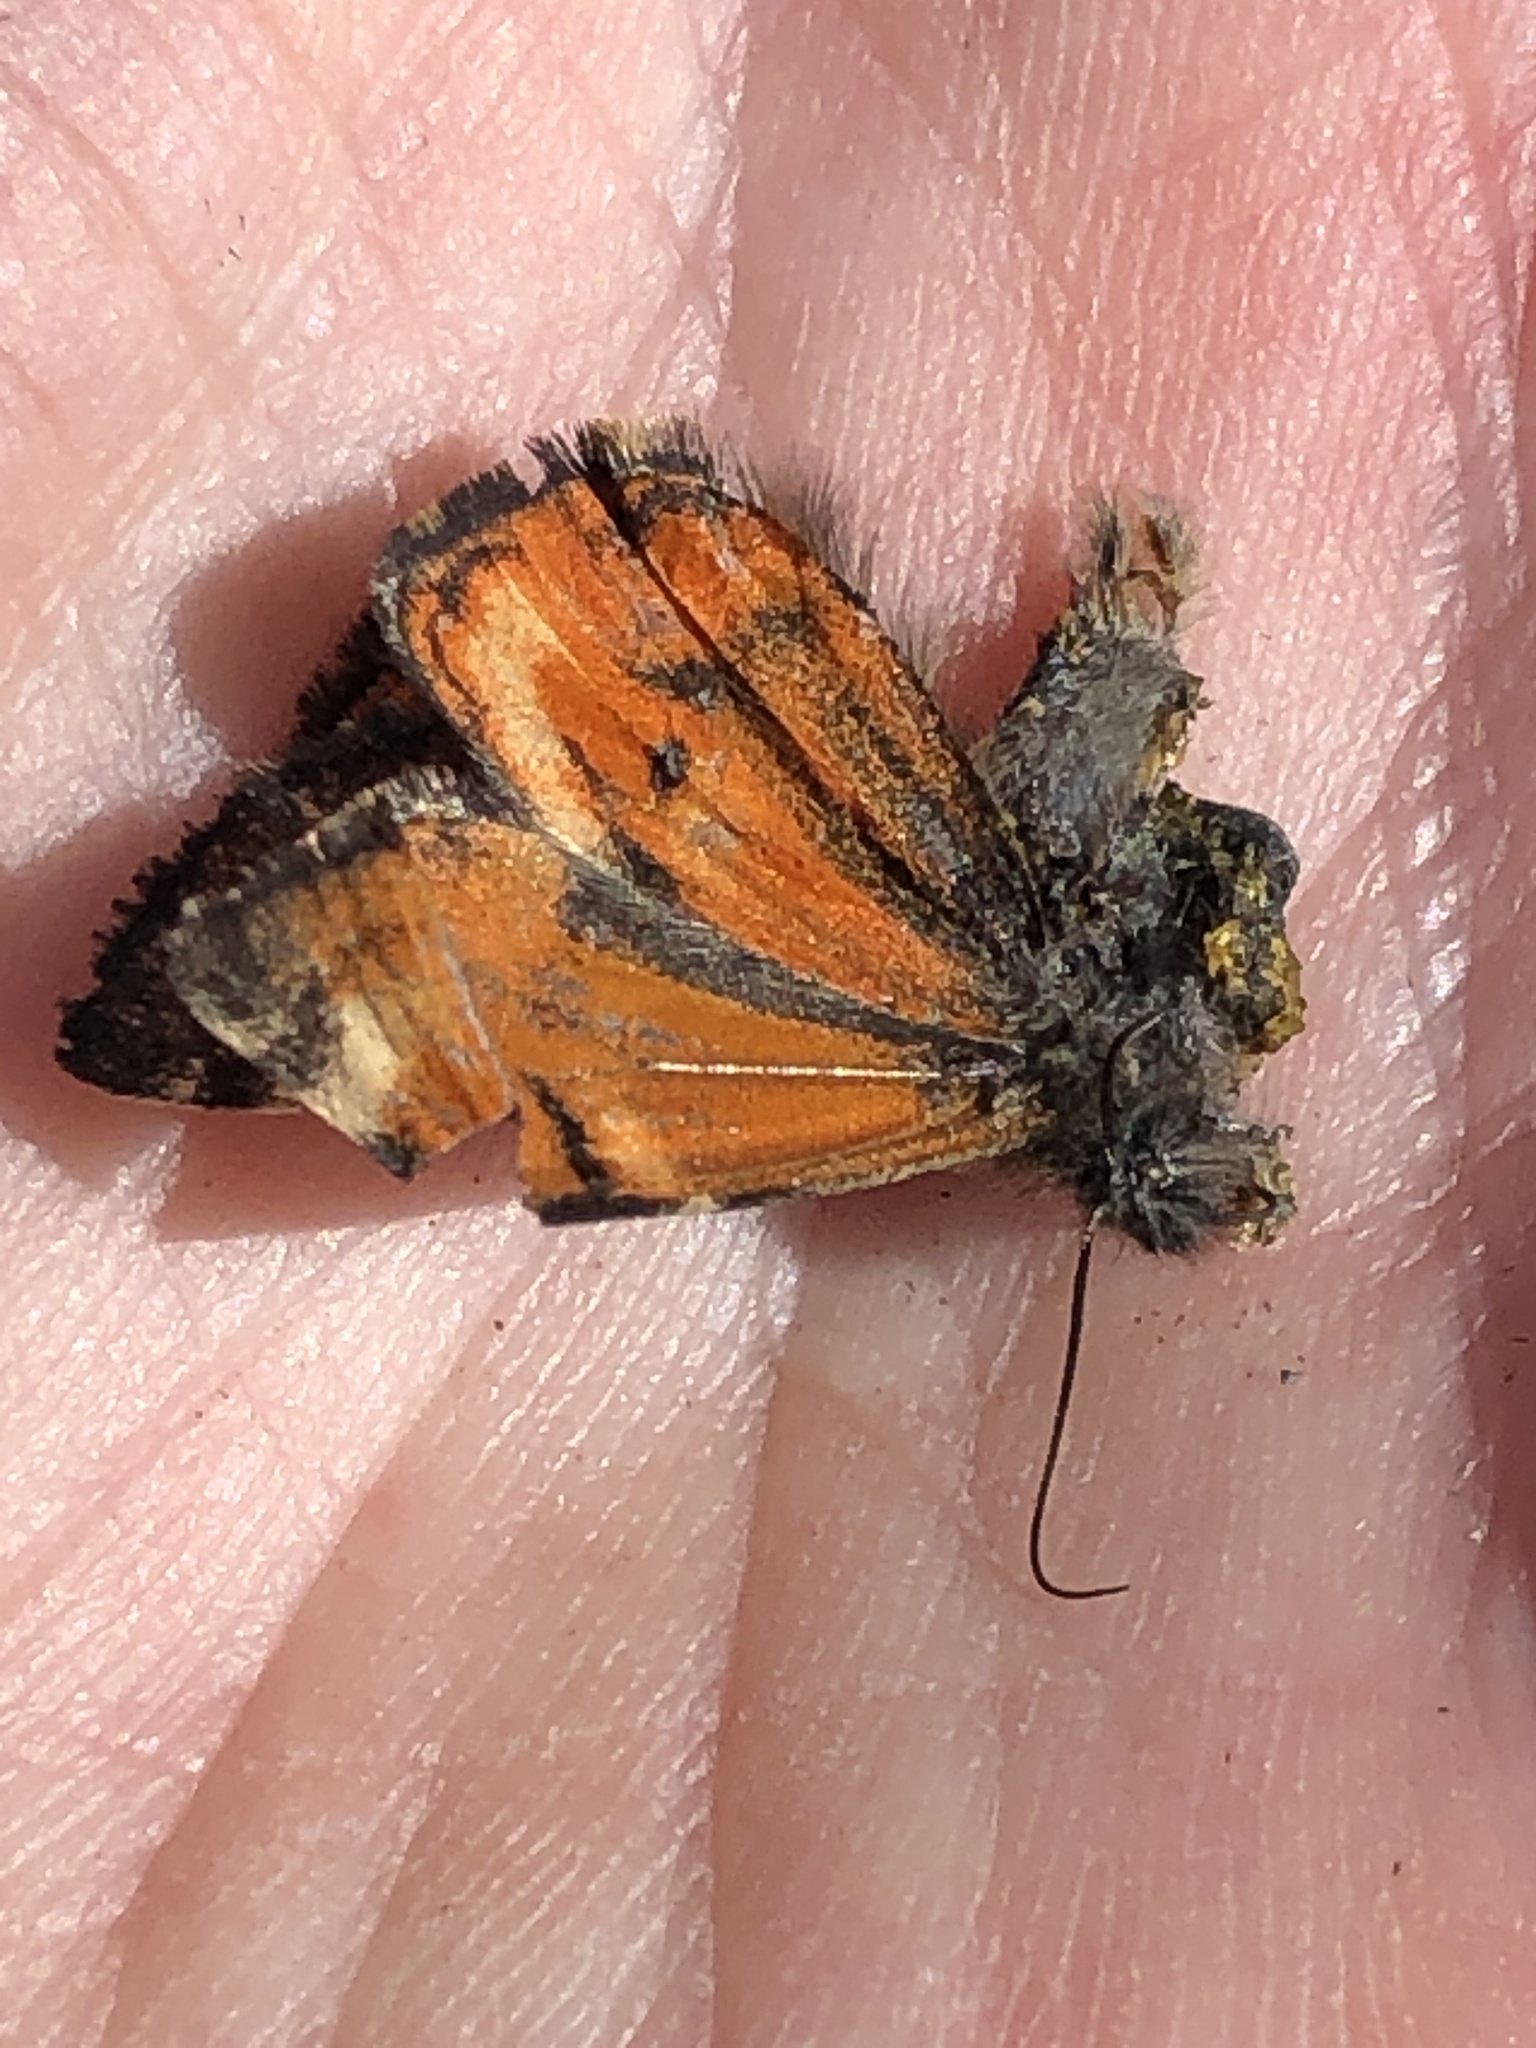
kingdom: Animalia
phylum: Arthropoda
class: Insecta
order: Lepidoptera
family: Geometridae
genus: Archiearis
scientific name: Archiearis infans
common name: First born geometer
